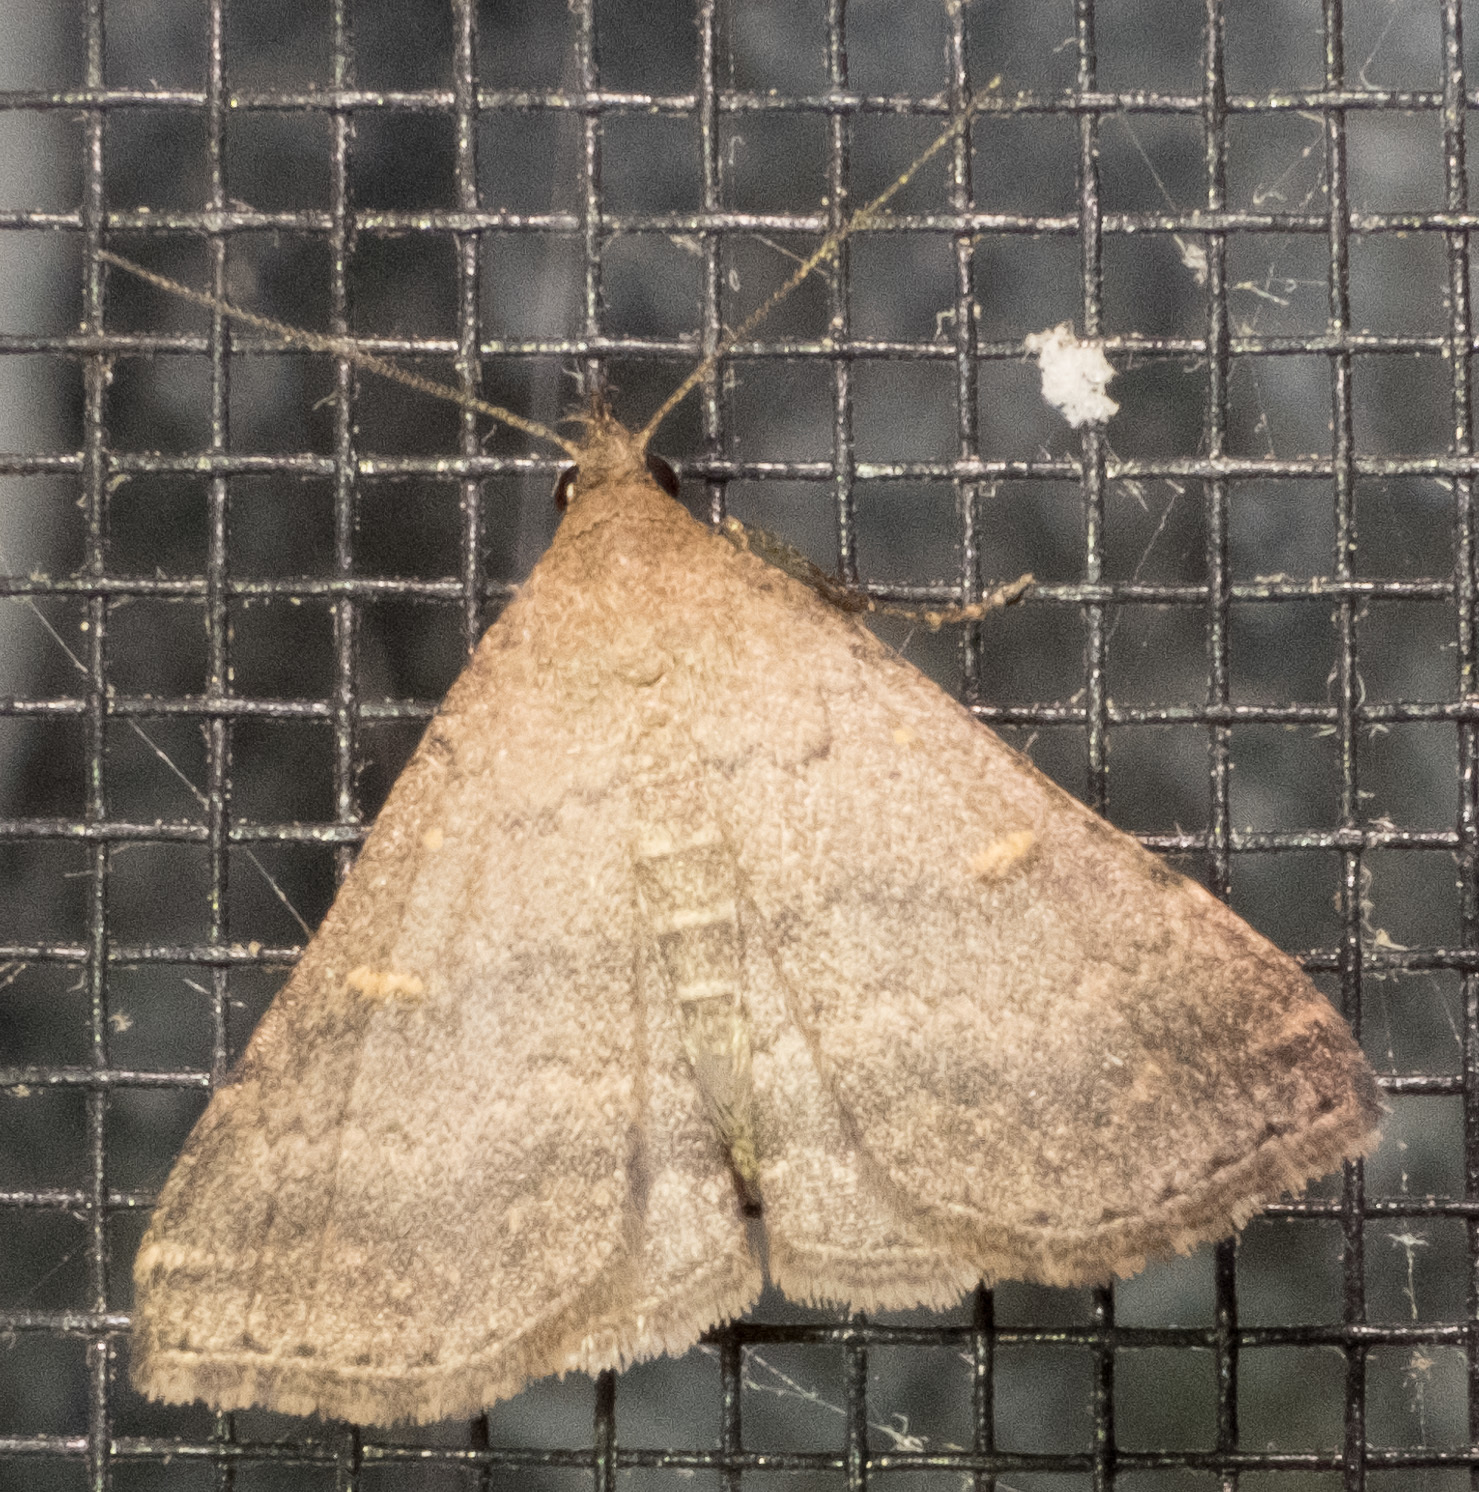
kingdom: Animalia
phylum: Arthropoda
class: Insecta
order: Lepidoptera
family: Erebidae
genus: Tetanolita
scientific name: Tetanolita floridana
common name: Florida tetanolita moth
